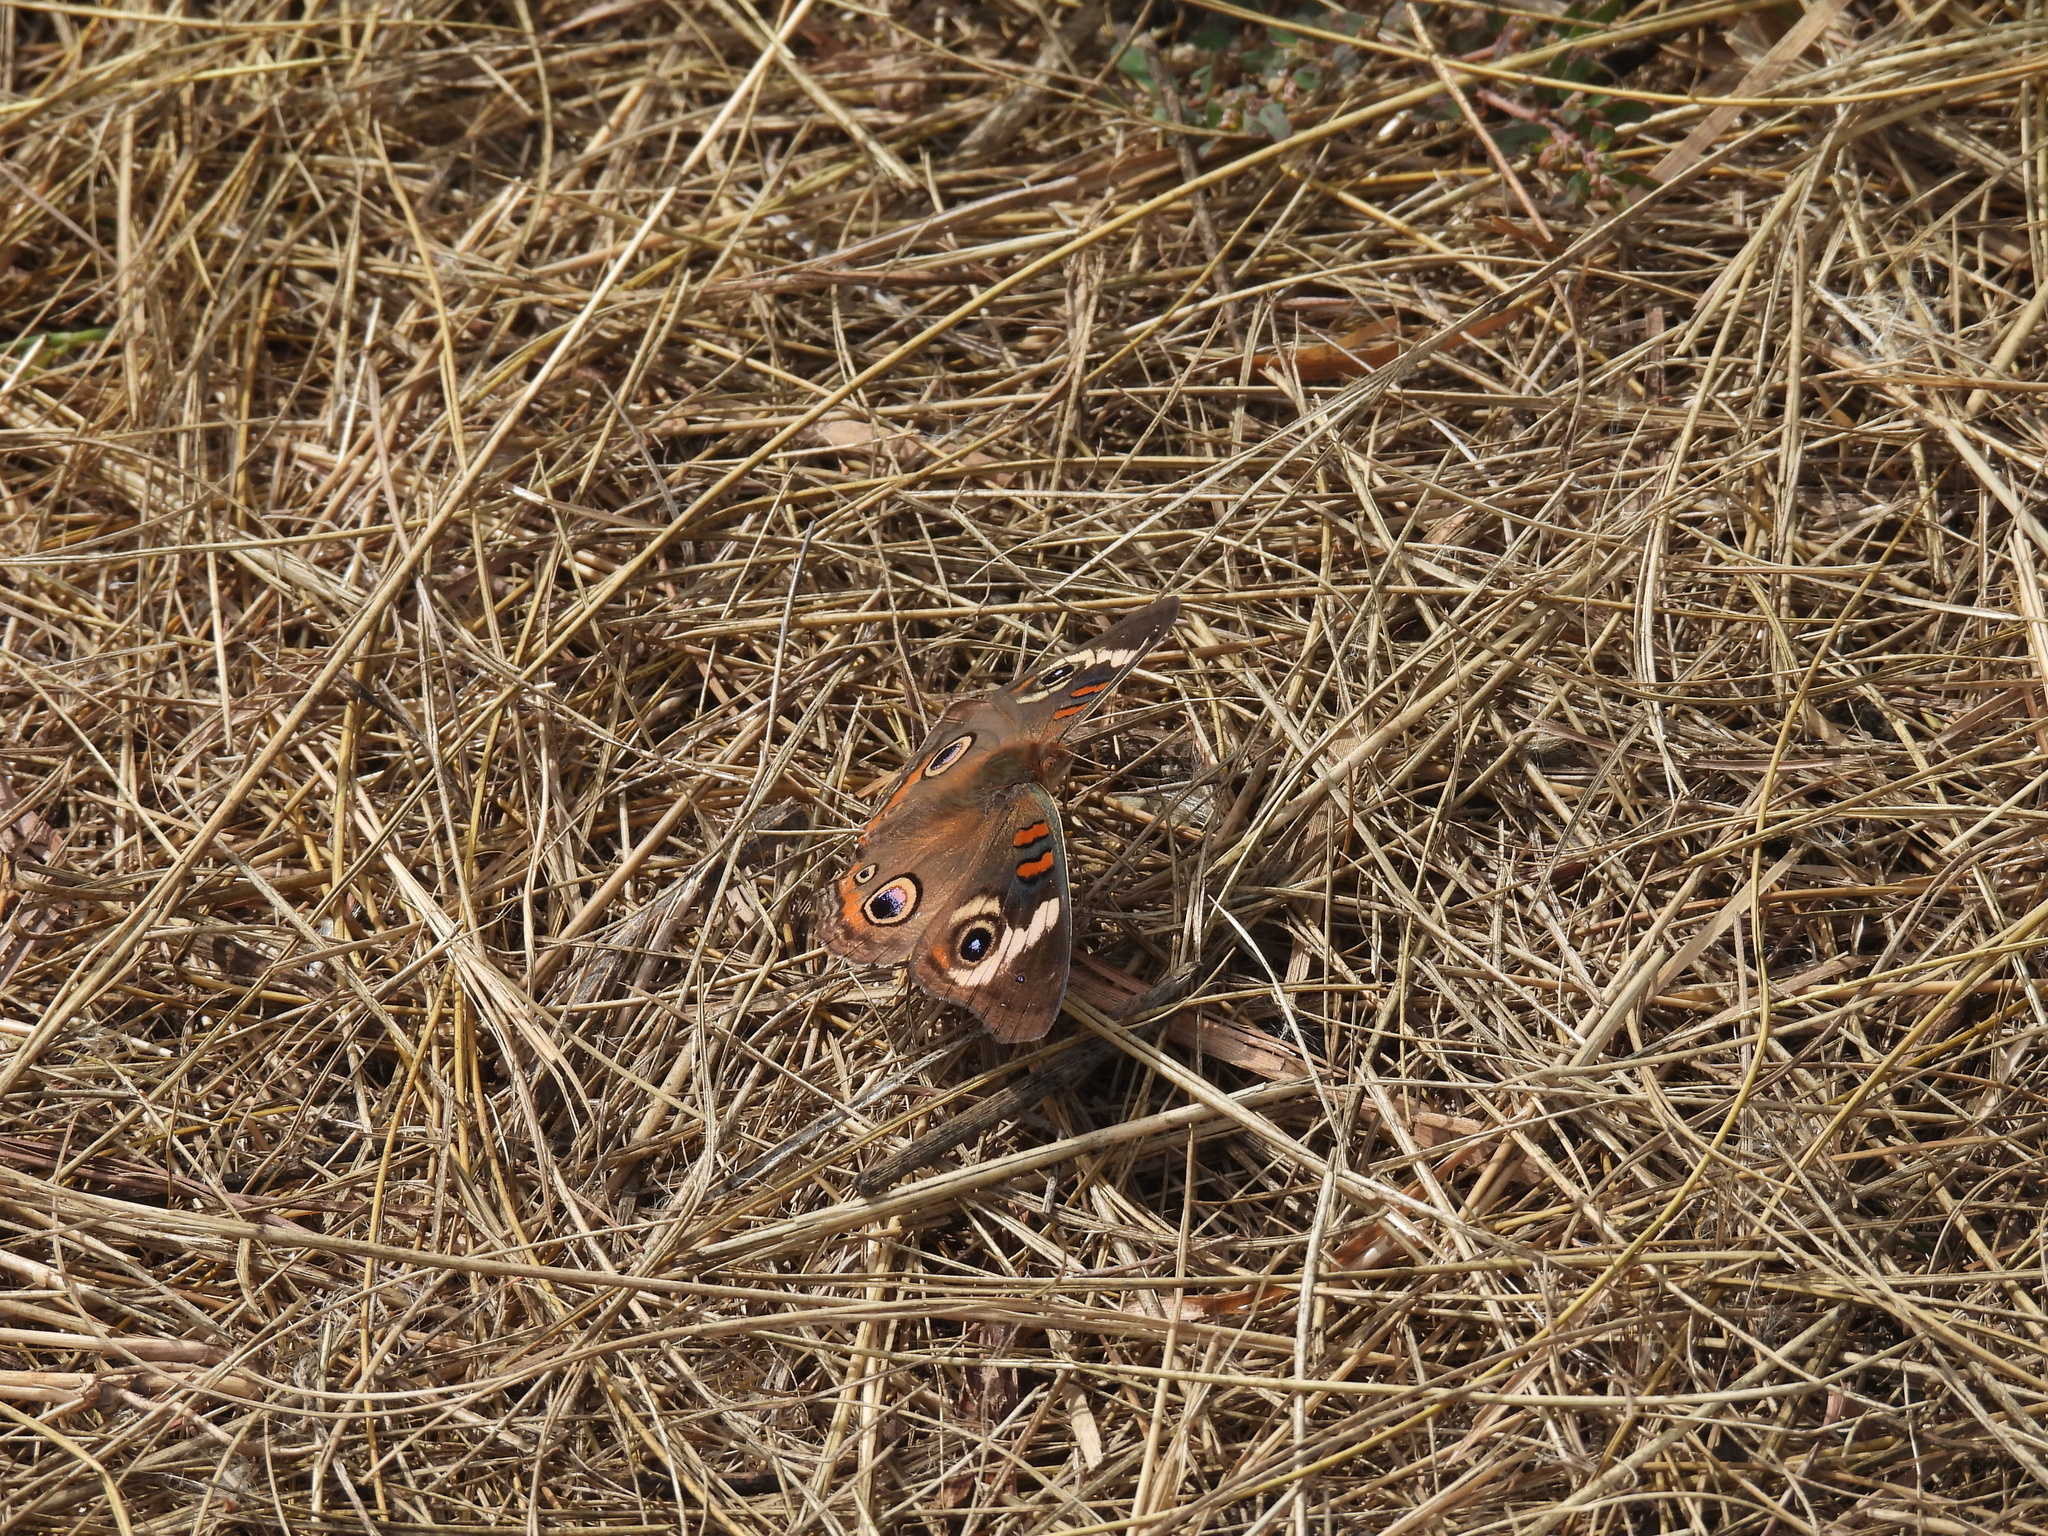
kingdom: Animalia
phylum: Arthropoda
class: Insecta
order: Lepidoptera
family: Nymphalidae
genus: Junonia
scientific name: Junonia coenia
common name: Common buckeye
